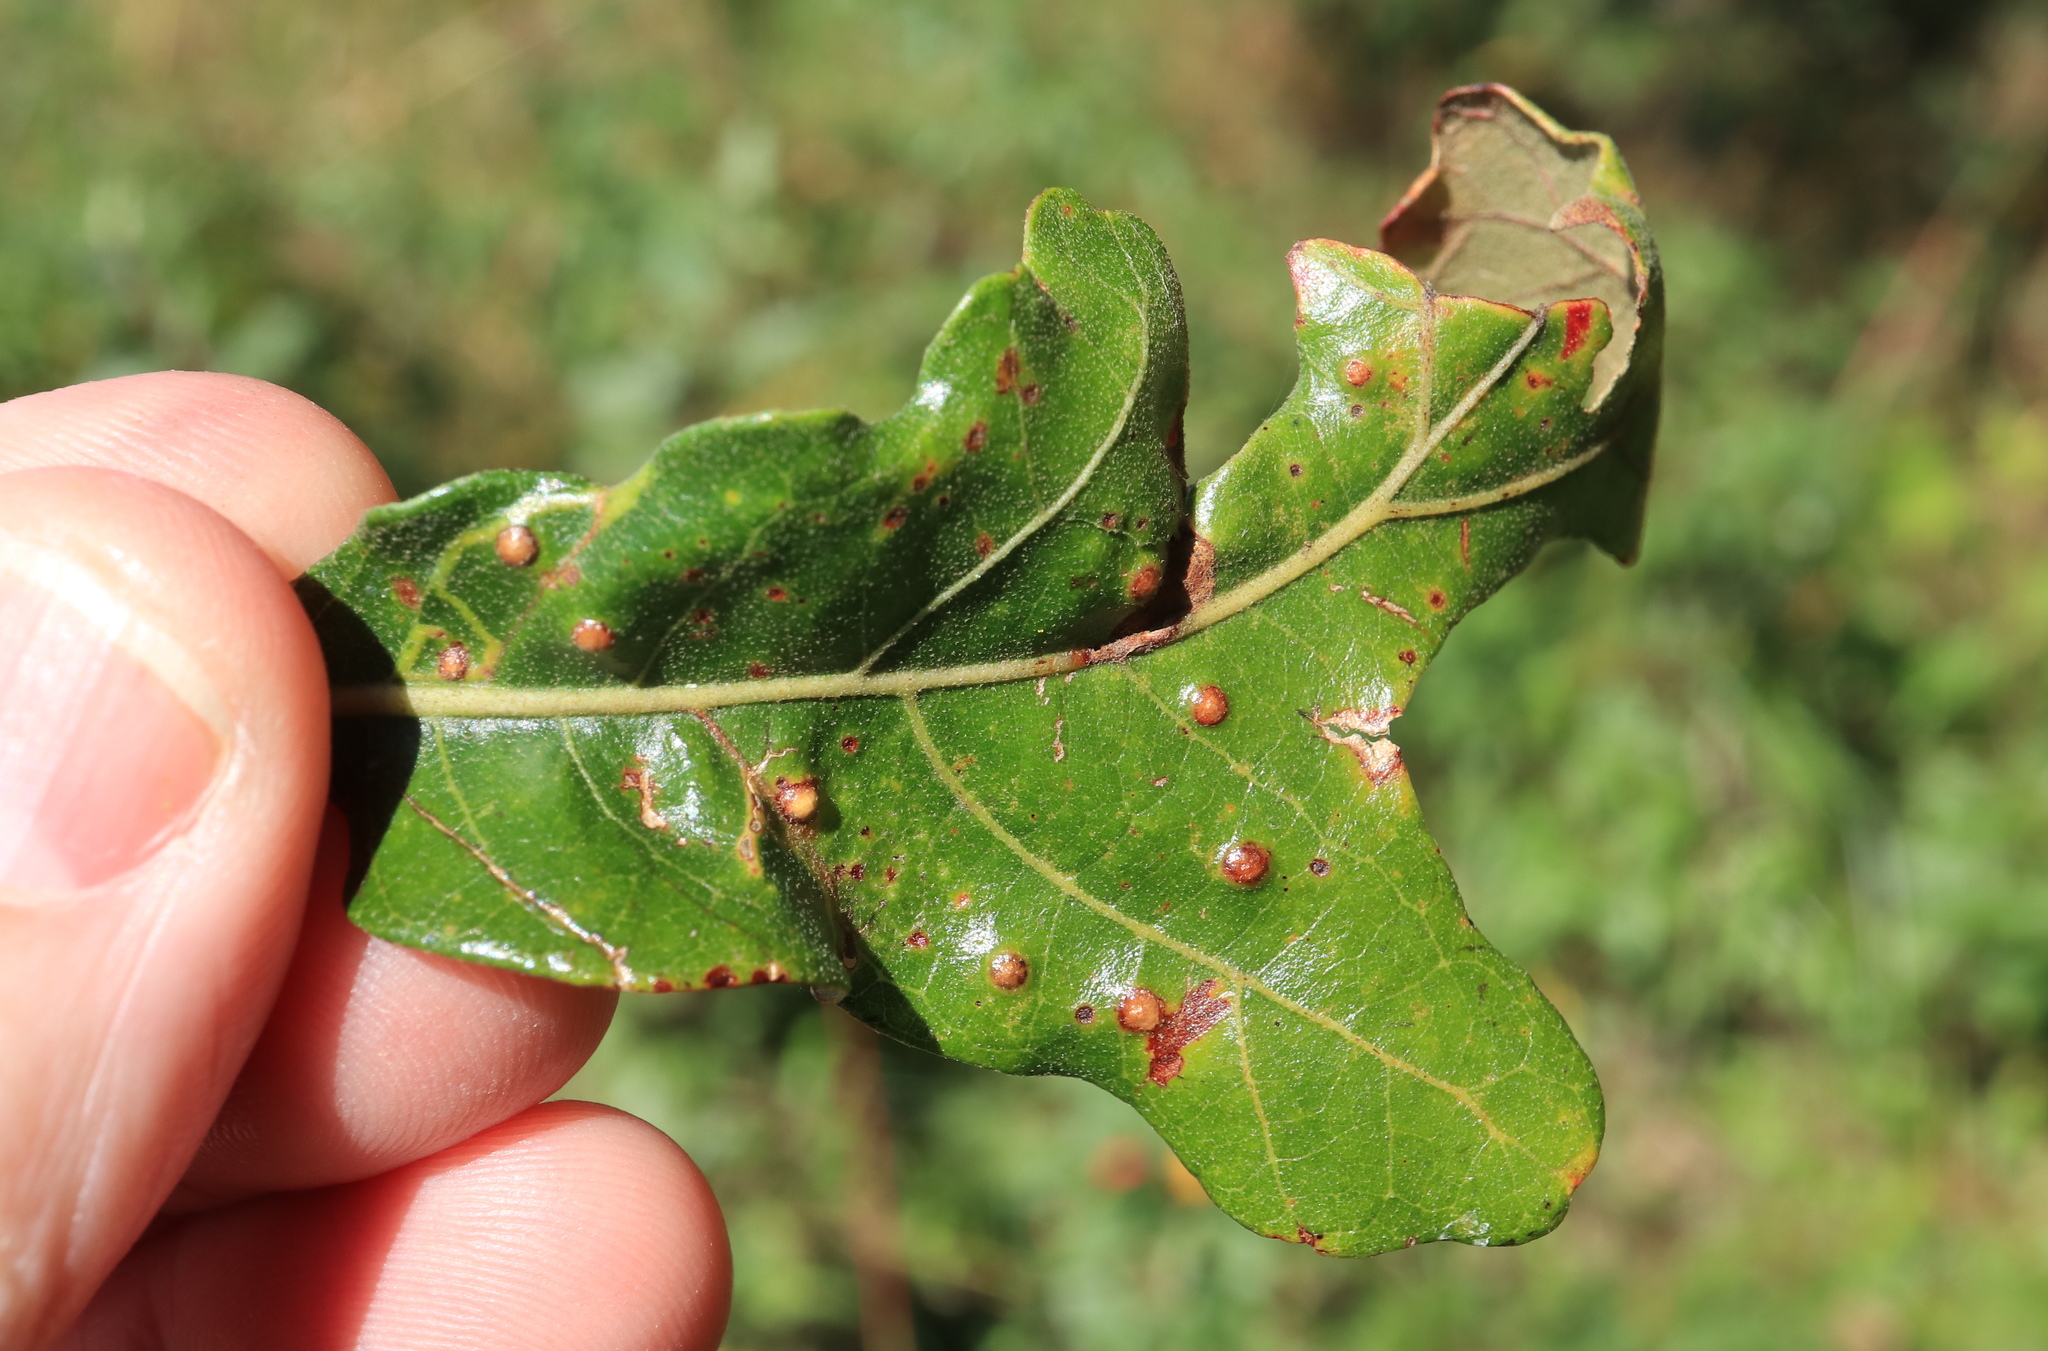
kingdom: Animalia
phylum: Arthropoda
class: Insecta
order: Hymenoptera
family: Cynipidae
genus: Neuroterus
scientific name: Neuroterus quercusverrucarum
